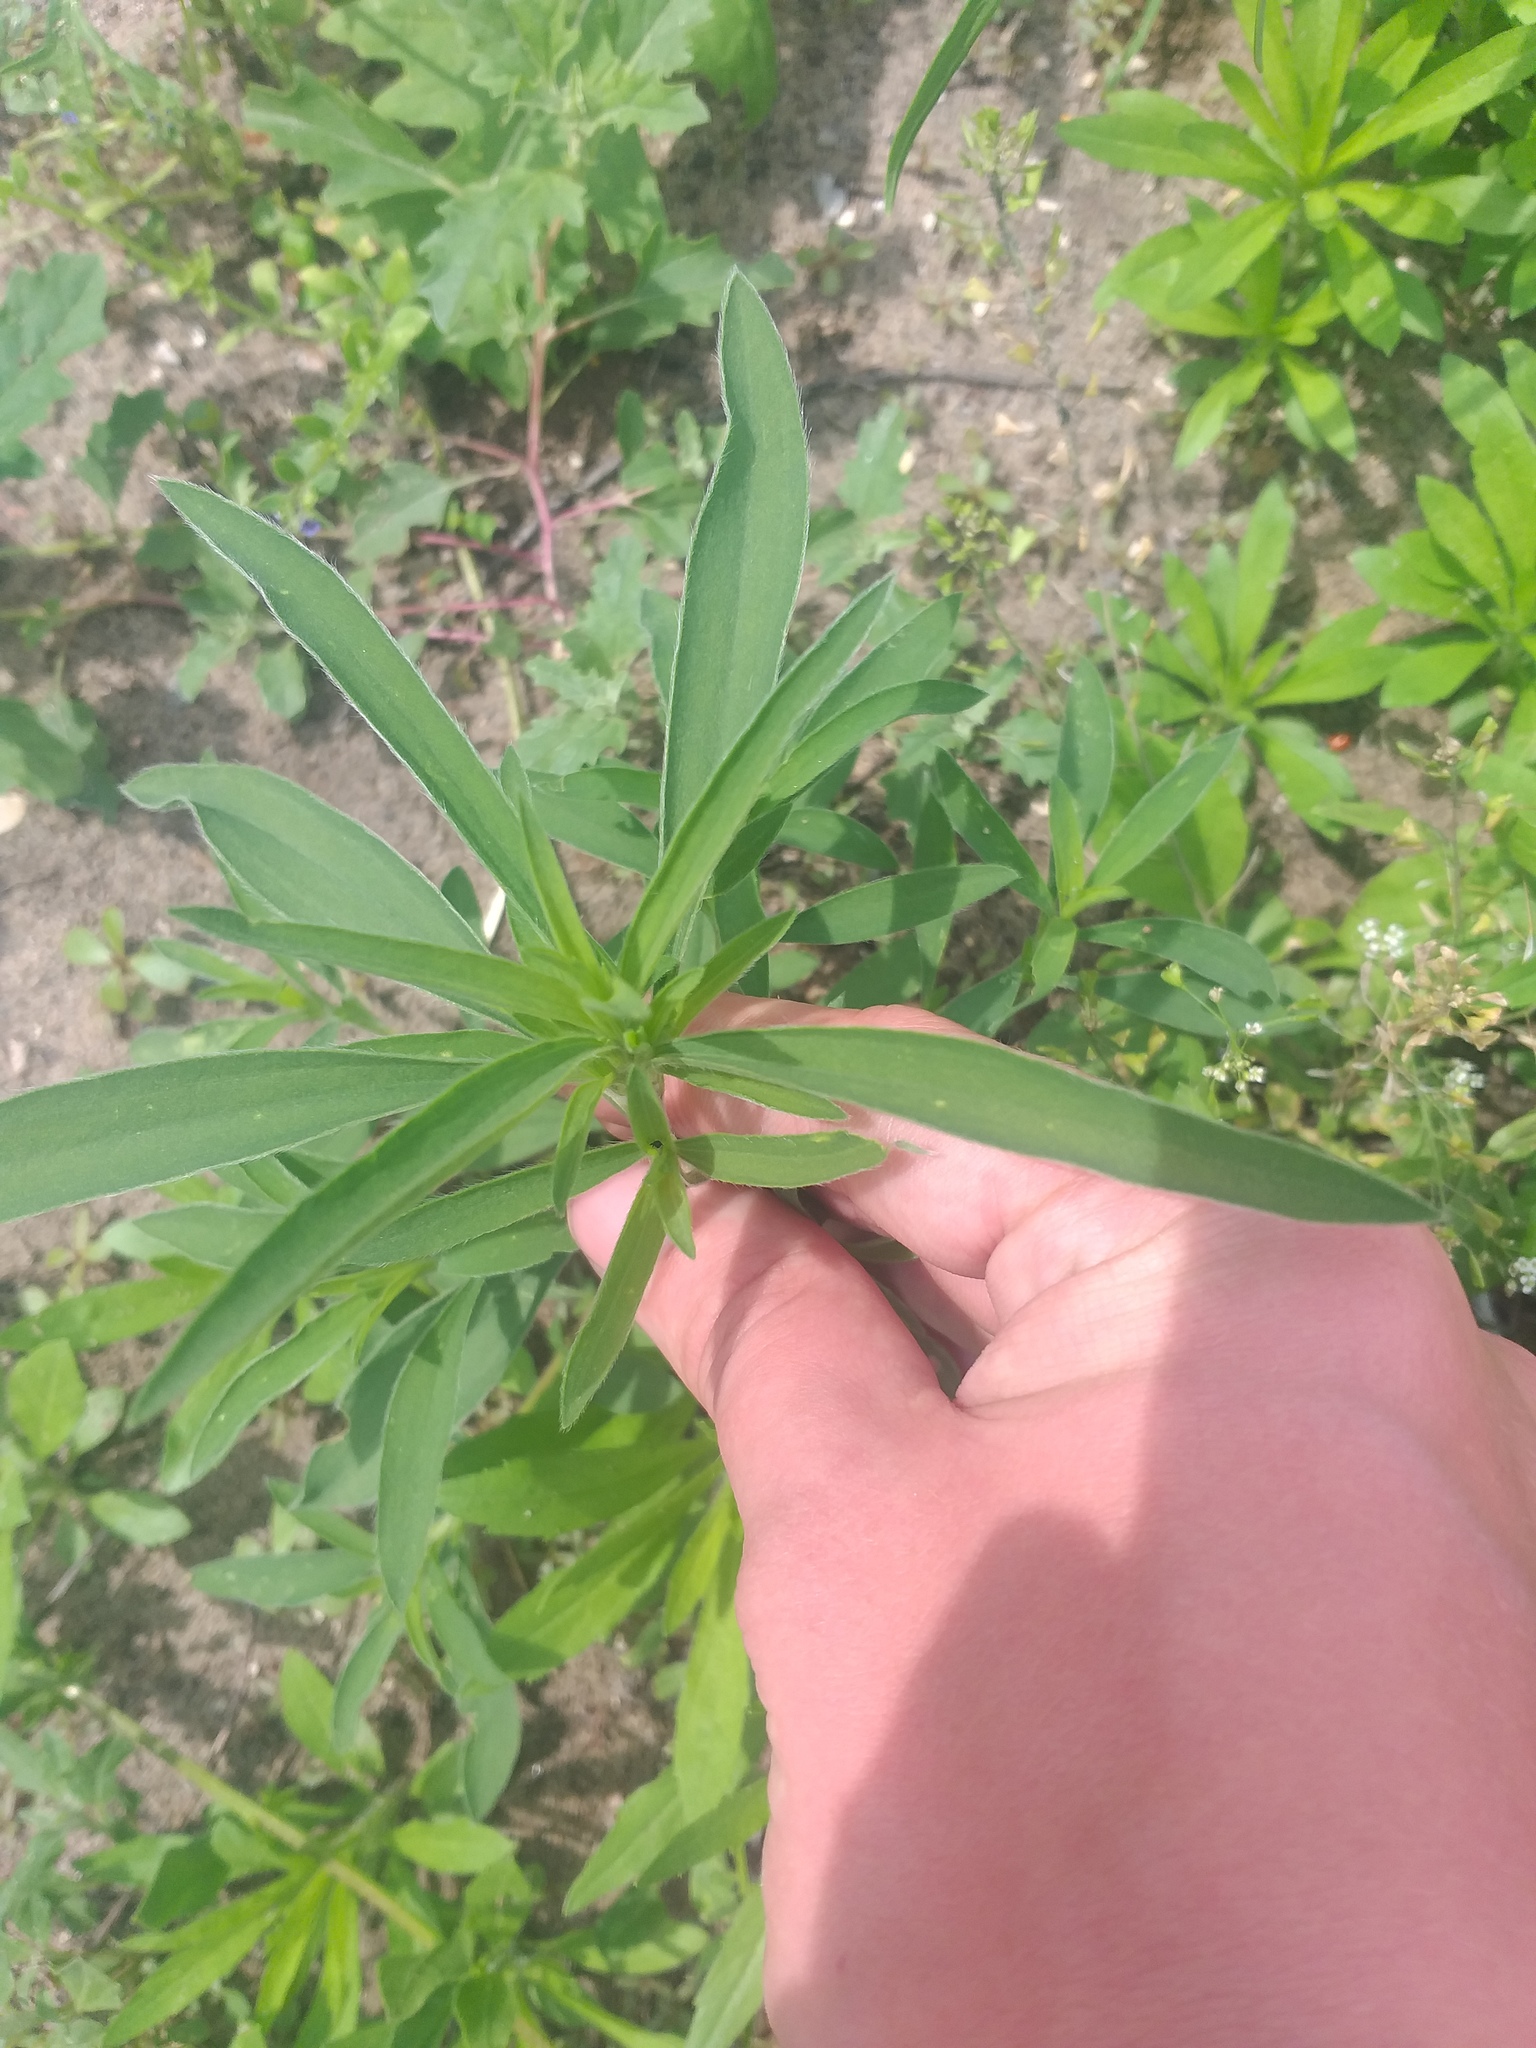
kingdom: Plantae
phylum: Tracheophyta
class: Magnoliopsida
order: Caryophyllales
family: Amaranthaceae
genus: Bassia
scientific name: Bassia scoparia
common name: Belvedere
